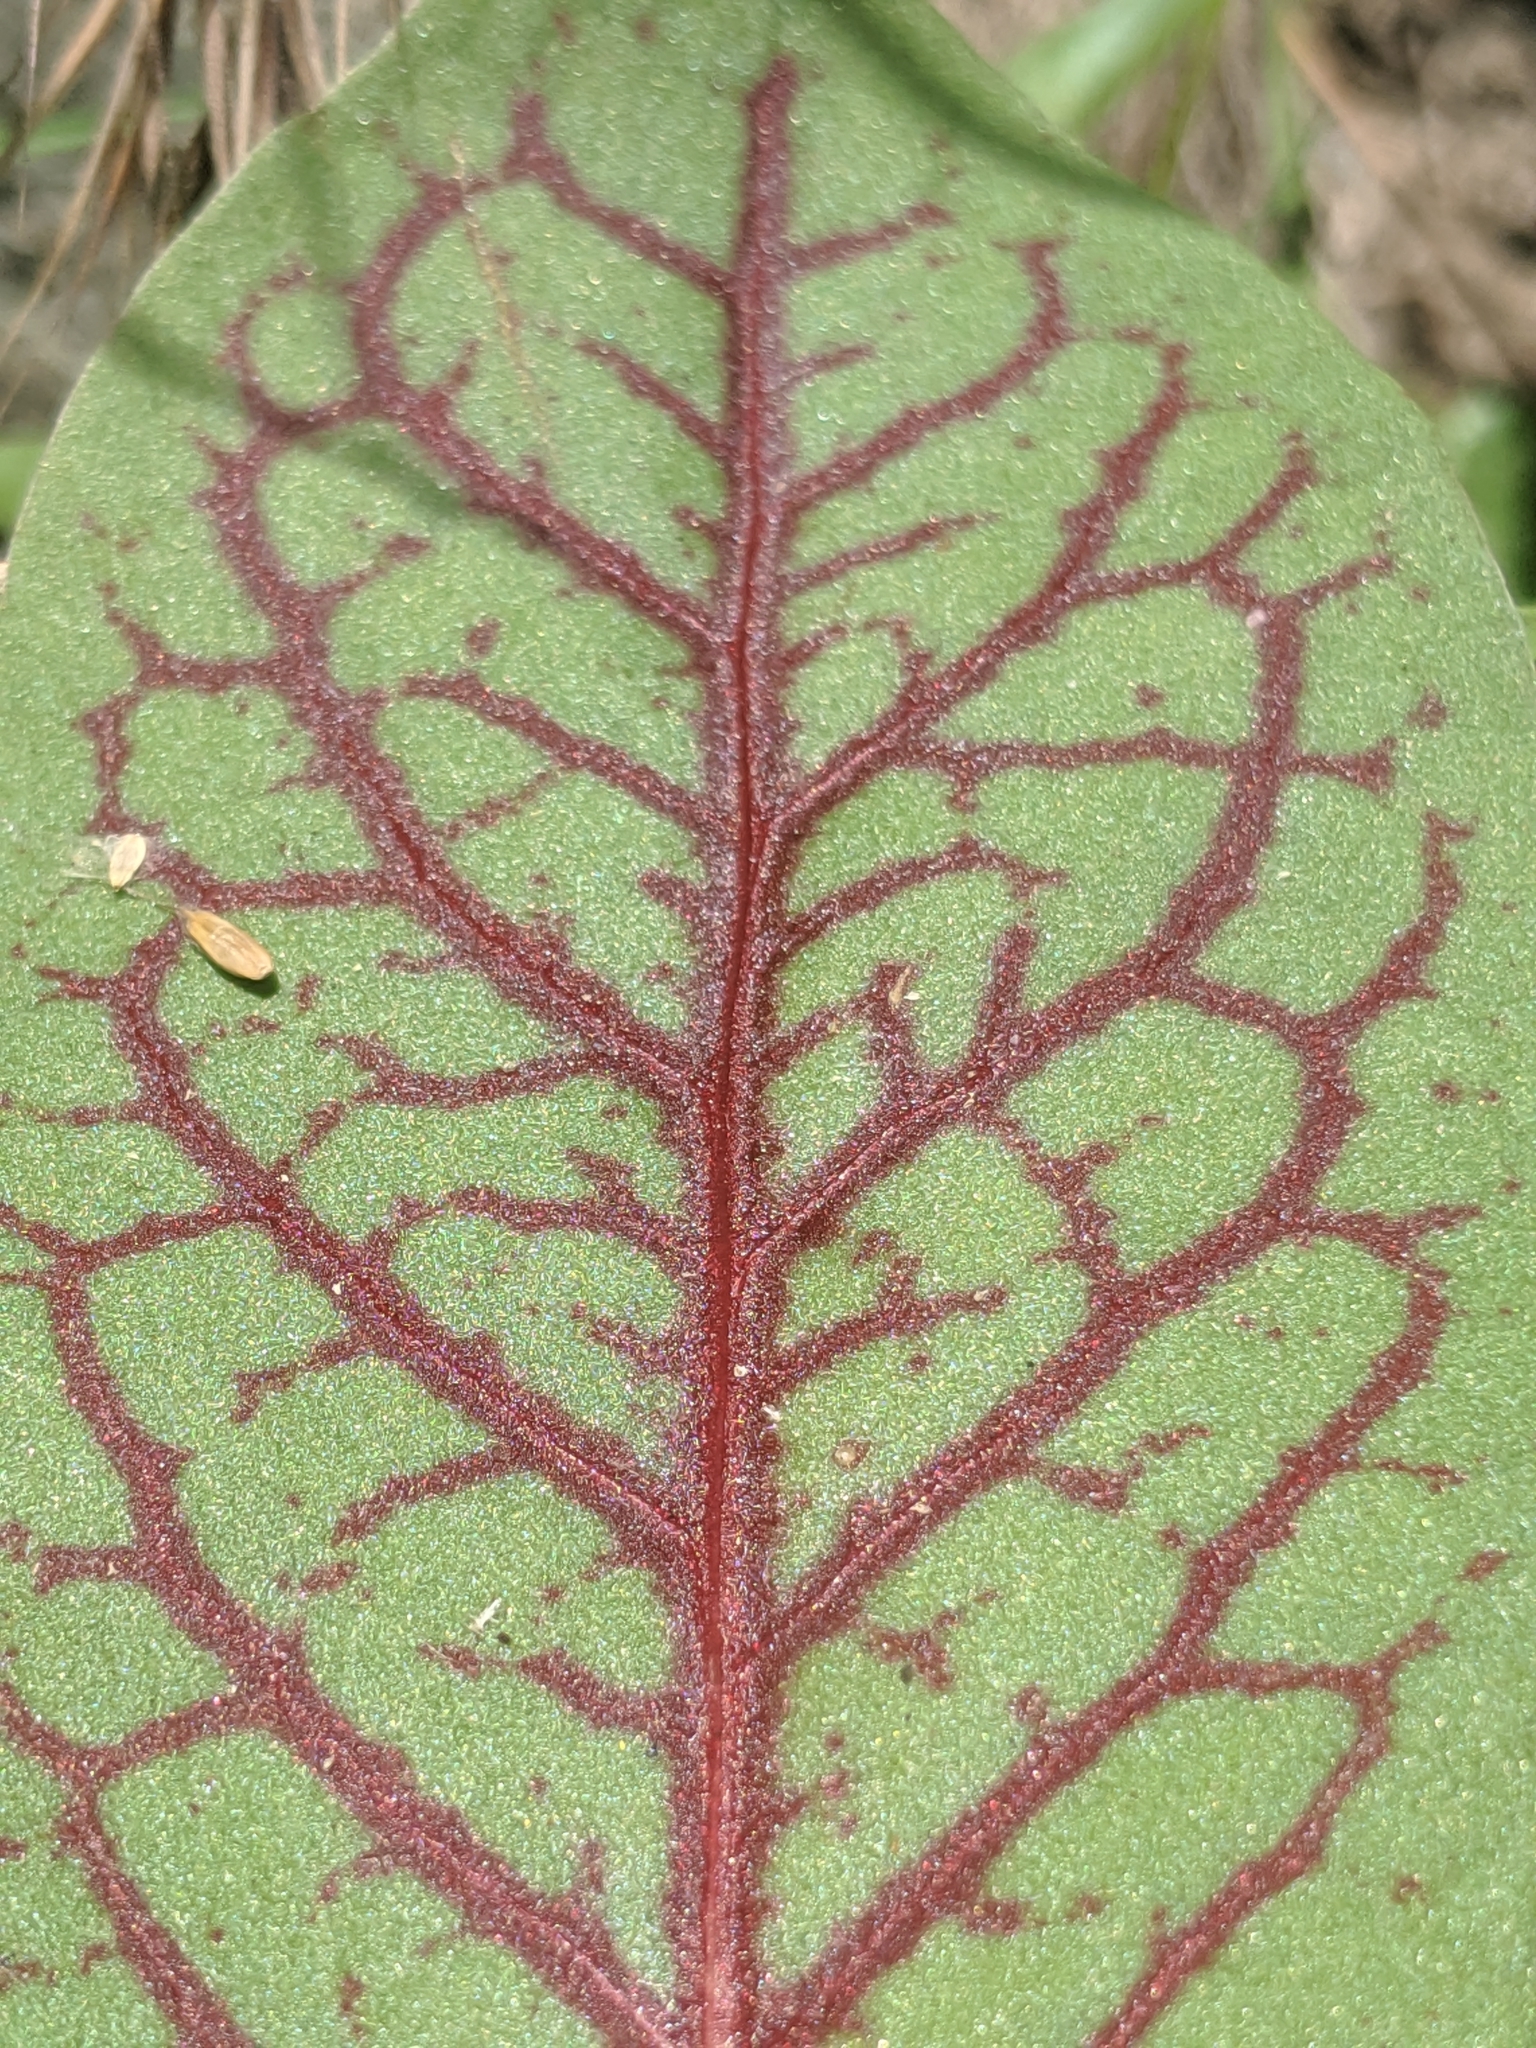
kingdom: Plantae
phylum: Tracheophyta
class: Magnoliopsida
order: Piperales
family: Saururaceae
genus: Anemopsis
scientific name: Anemopsis californica
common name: Apache-beads
